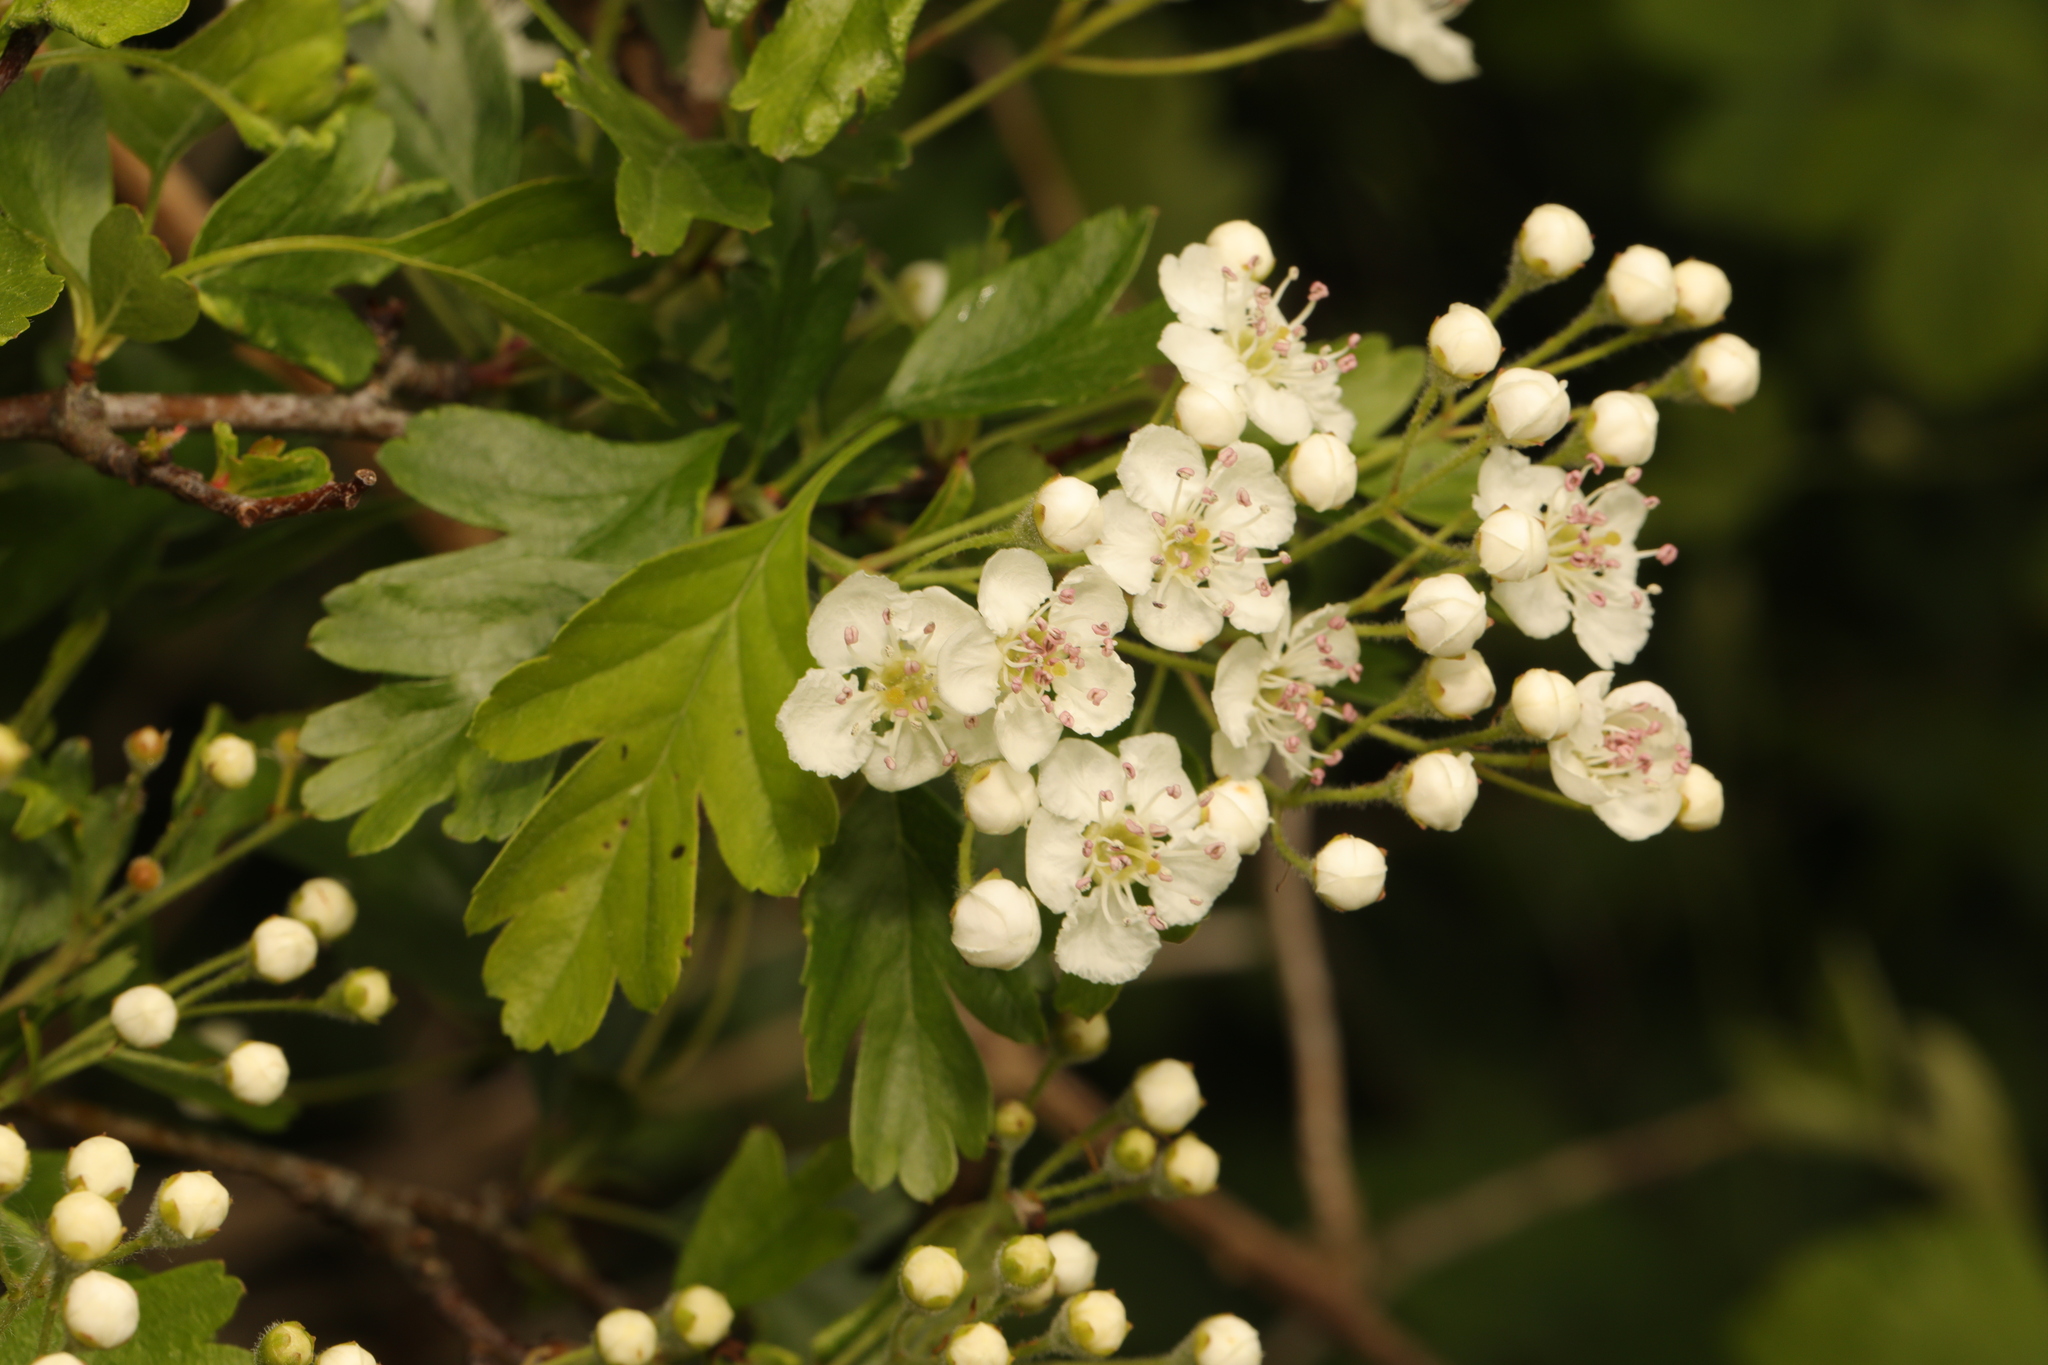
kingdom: Plantae
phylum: Tracheophyta
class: Magnoliopsida
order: Rosales
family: Rosaceae
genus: Crataegus
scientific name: Crataegus monogyna
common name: Hawthorn
